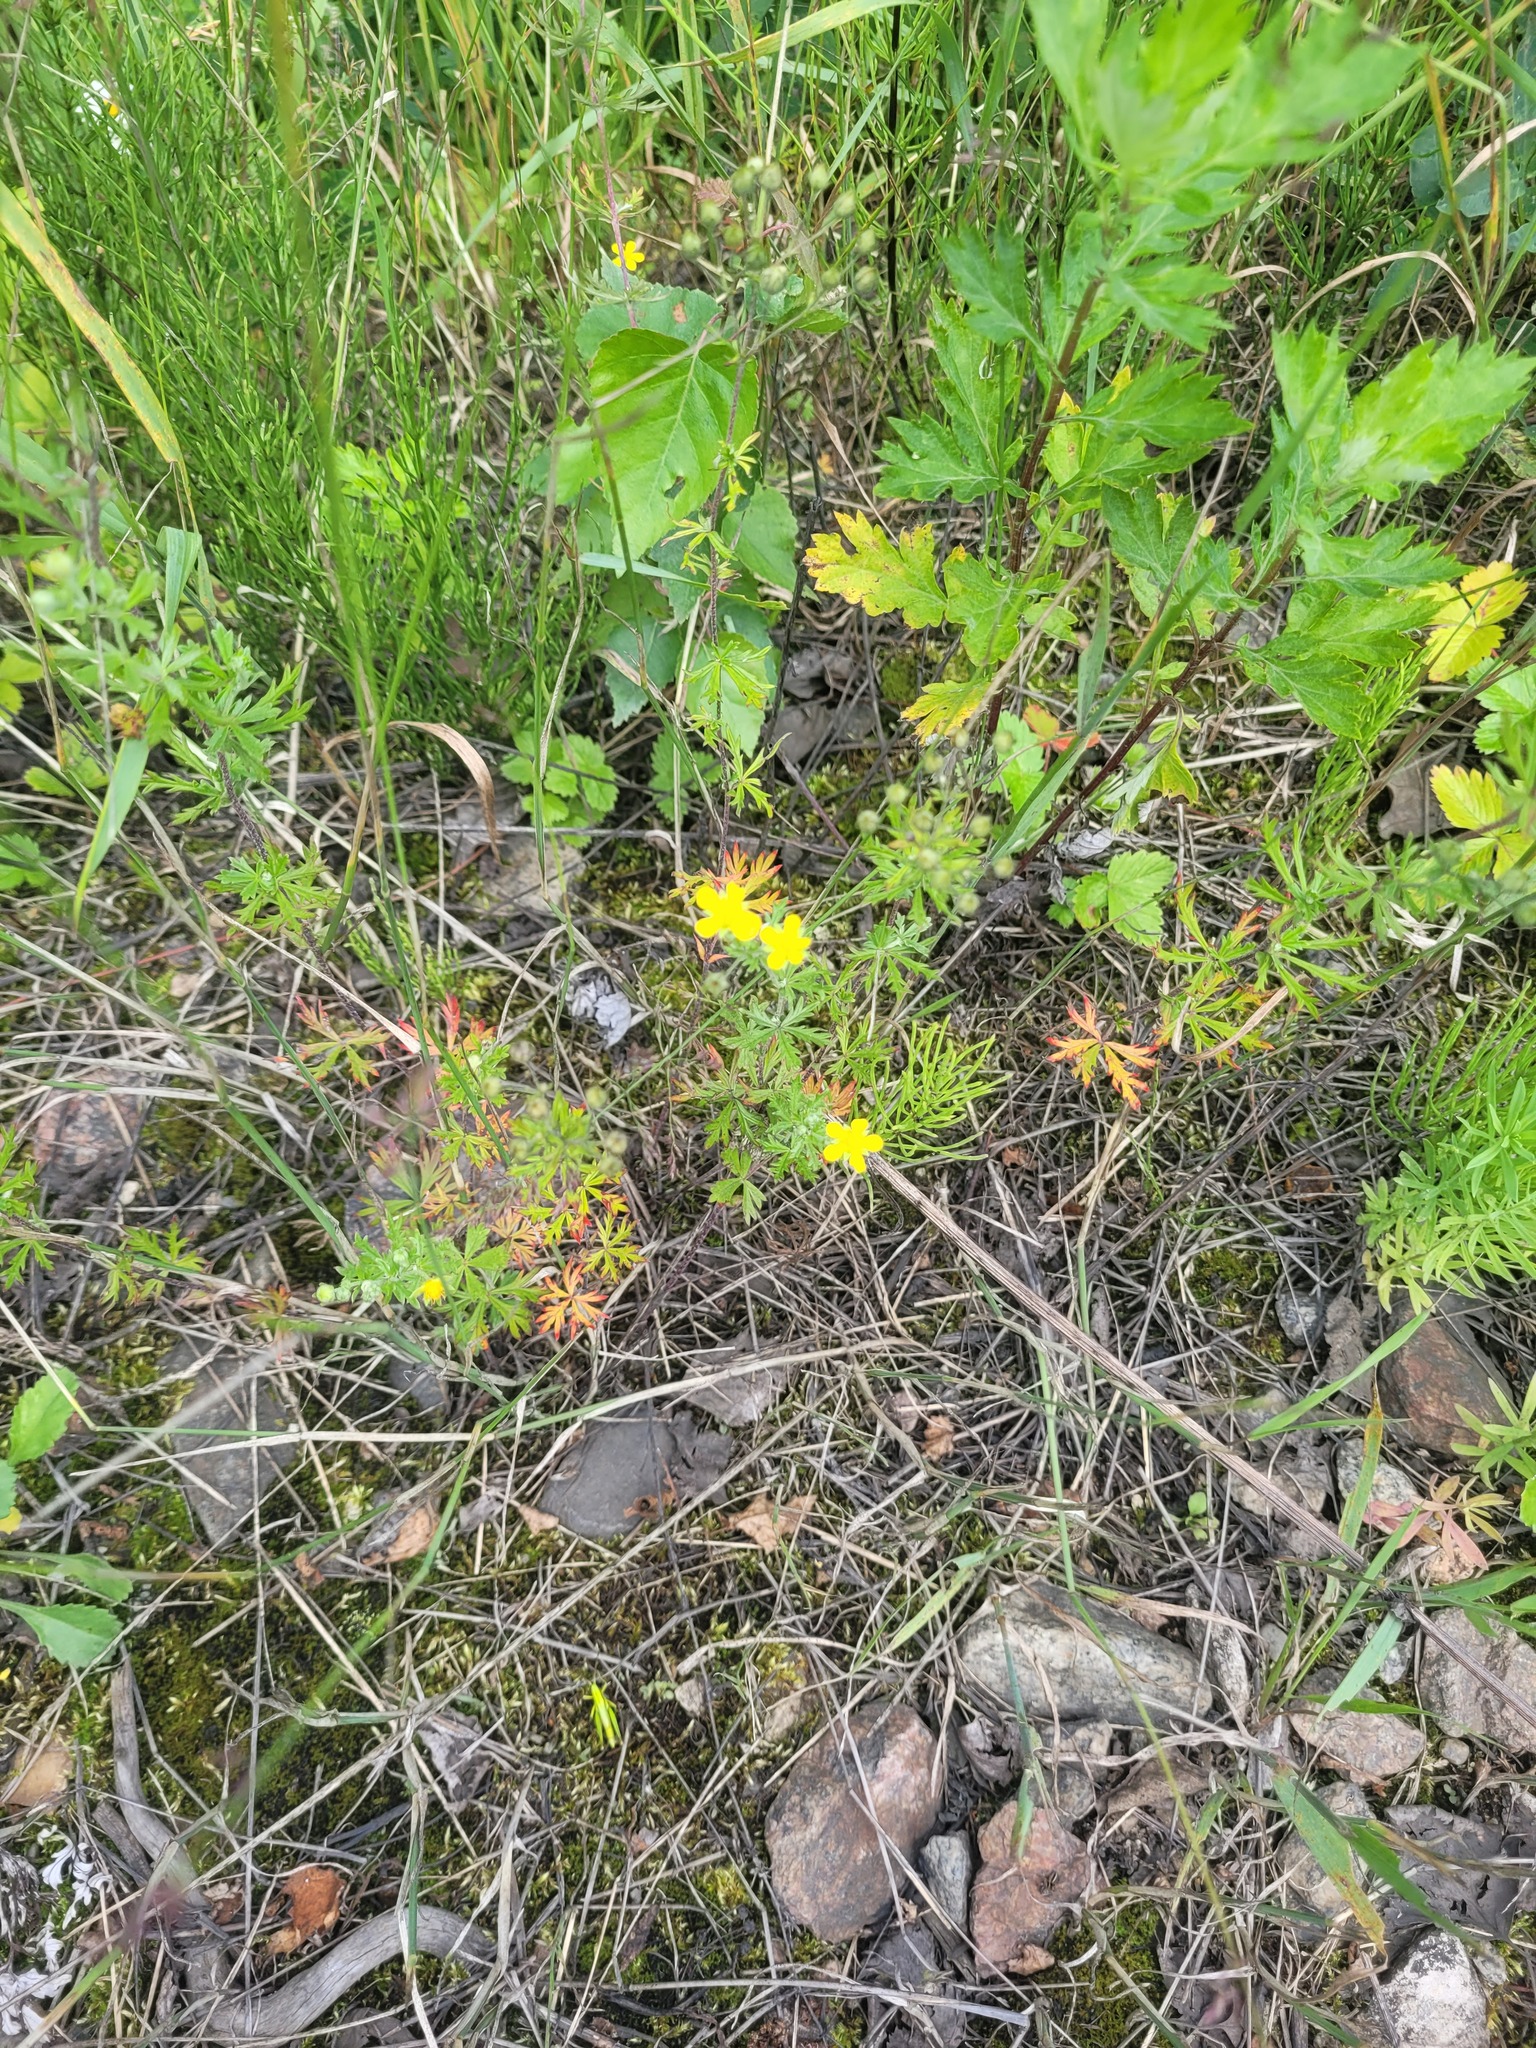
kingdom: Plantae
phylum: Tracheophyta
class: Magnoliopsida
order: Rosales
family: Rosaceae
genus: Potentilla
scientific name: Potentilla argentea
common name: Hoary cinquefoil
